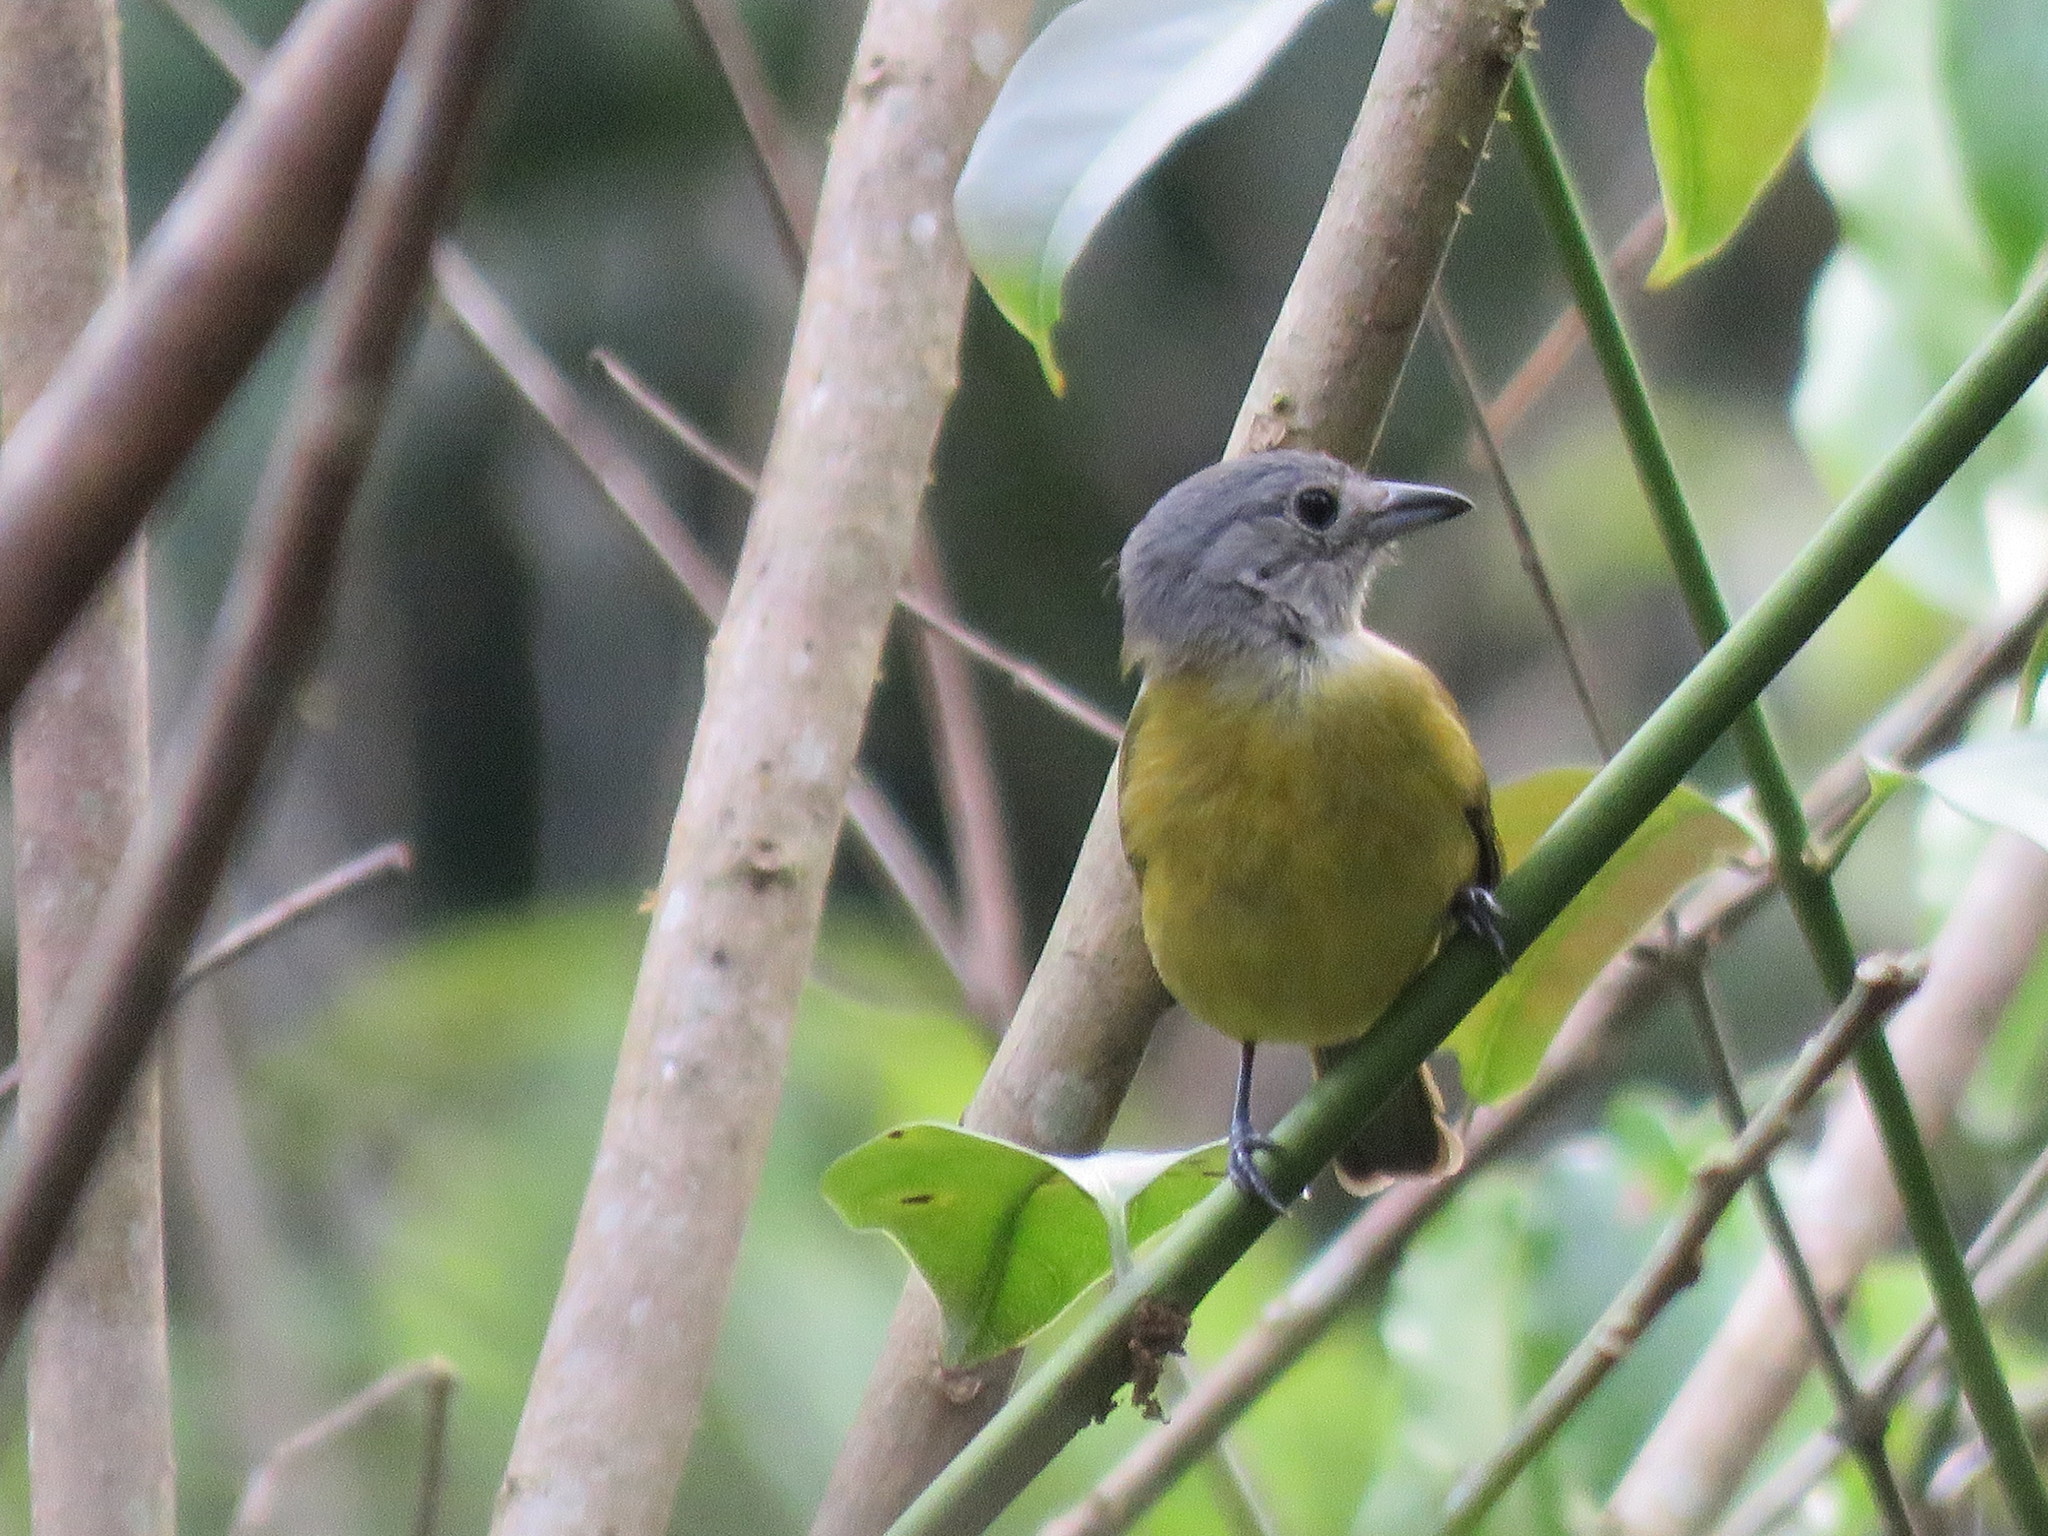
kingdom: Animalia
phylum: Chordata
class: Aves
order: Passeriformes
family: Thraupidae
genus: Loriotus
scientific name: Loriotus luctuosus
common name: White-shouldered tanager
